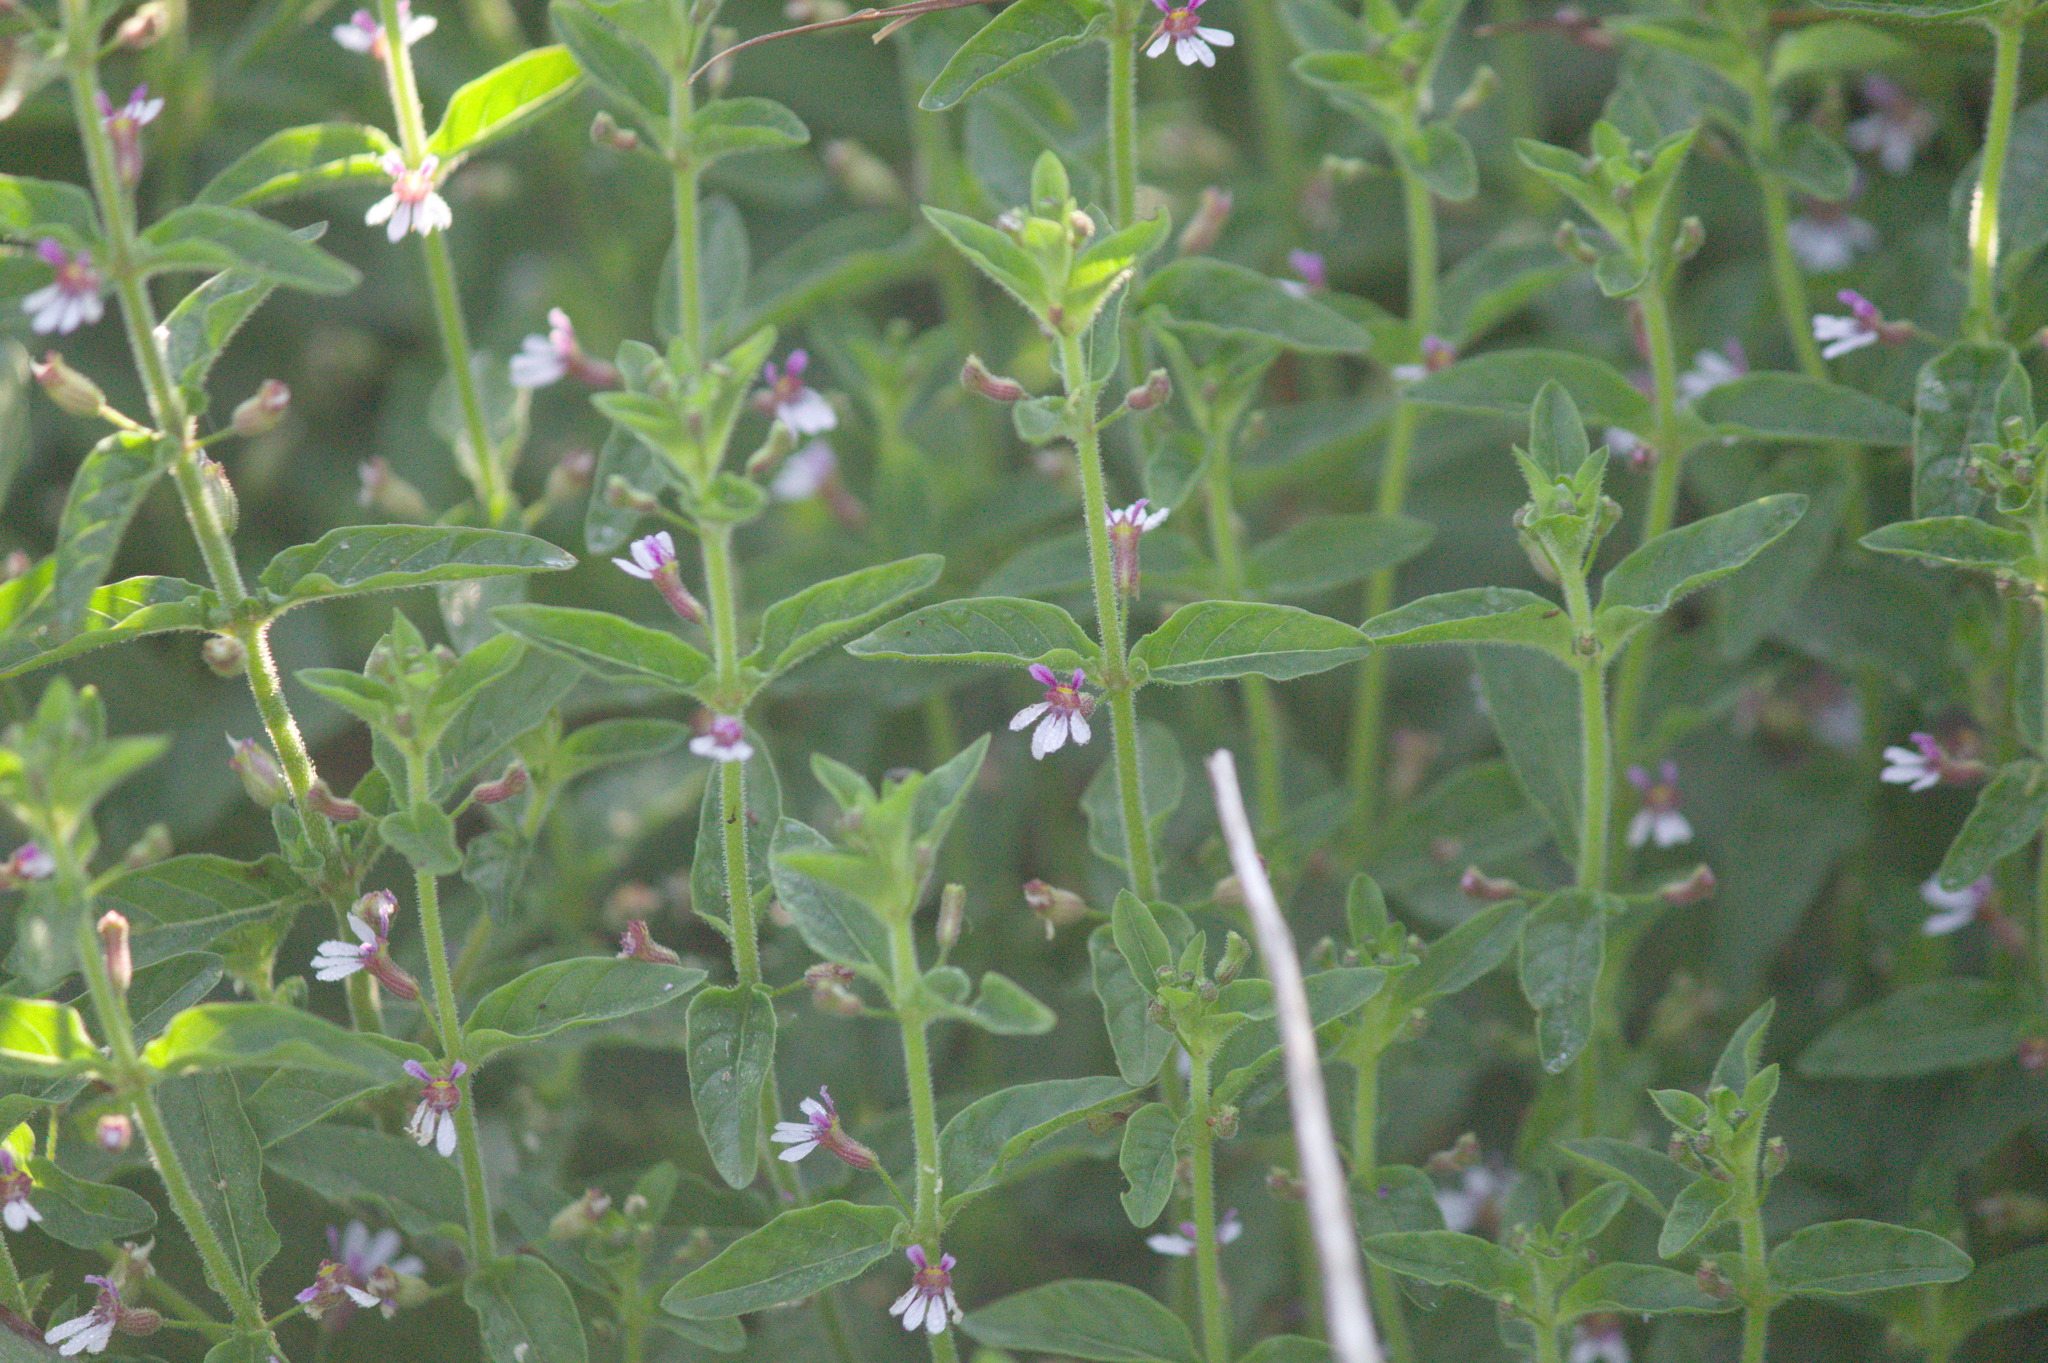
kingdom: Plantae
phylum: Tracheophyta
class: Magnoliopsida
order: Myrtales
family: Lythraceae
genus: Cuphea
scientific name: Cuphea lindmaniana
